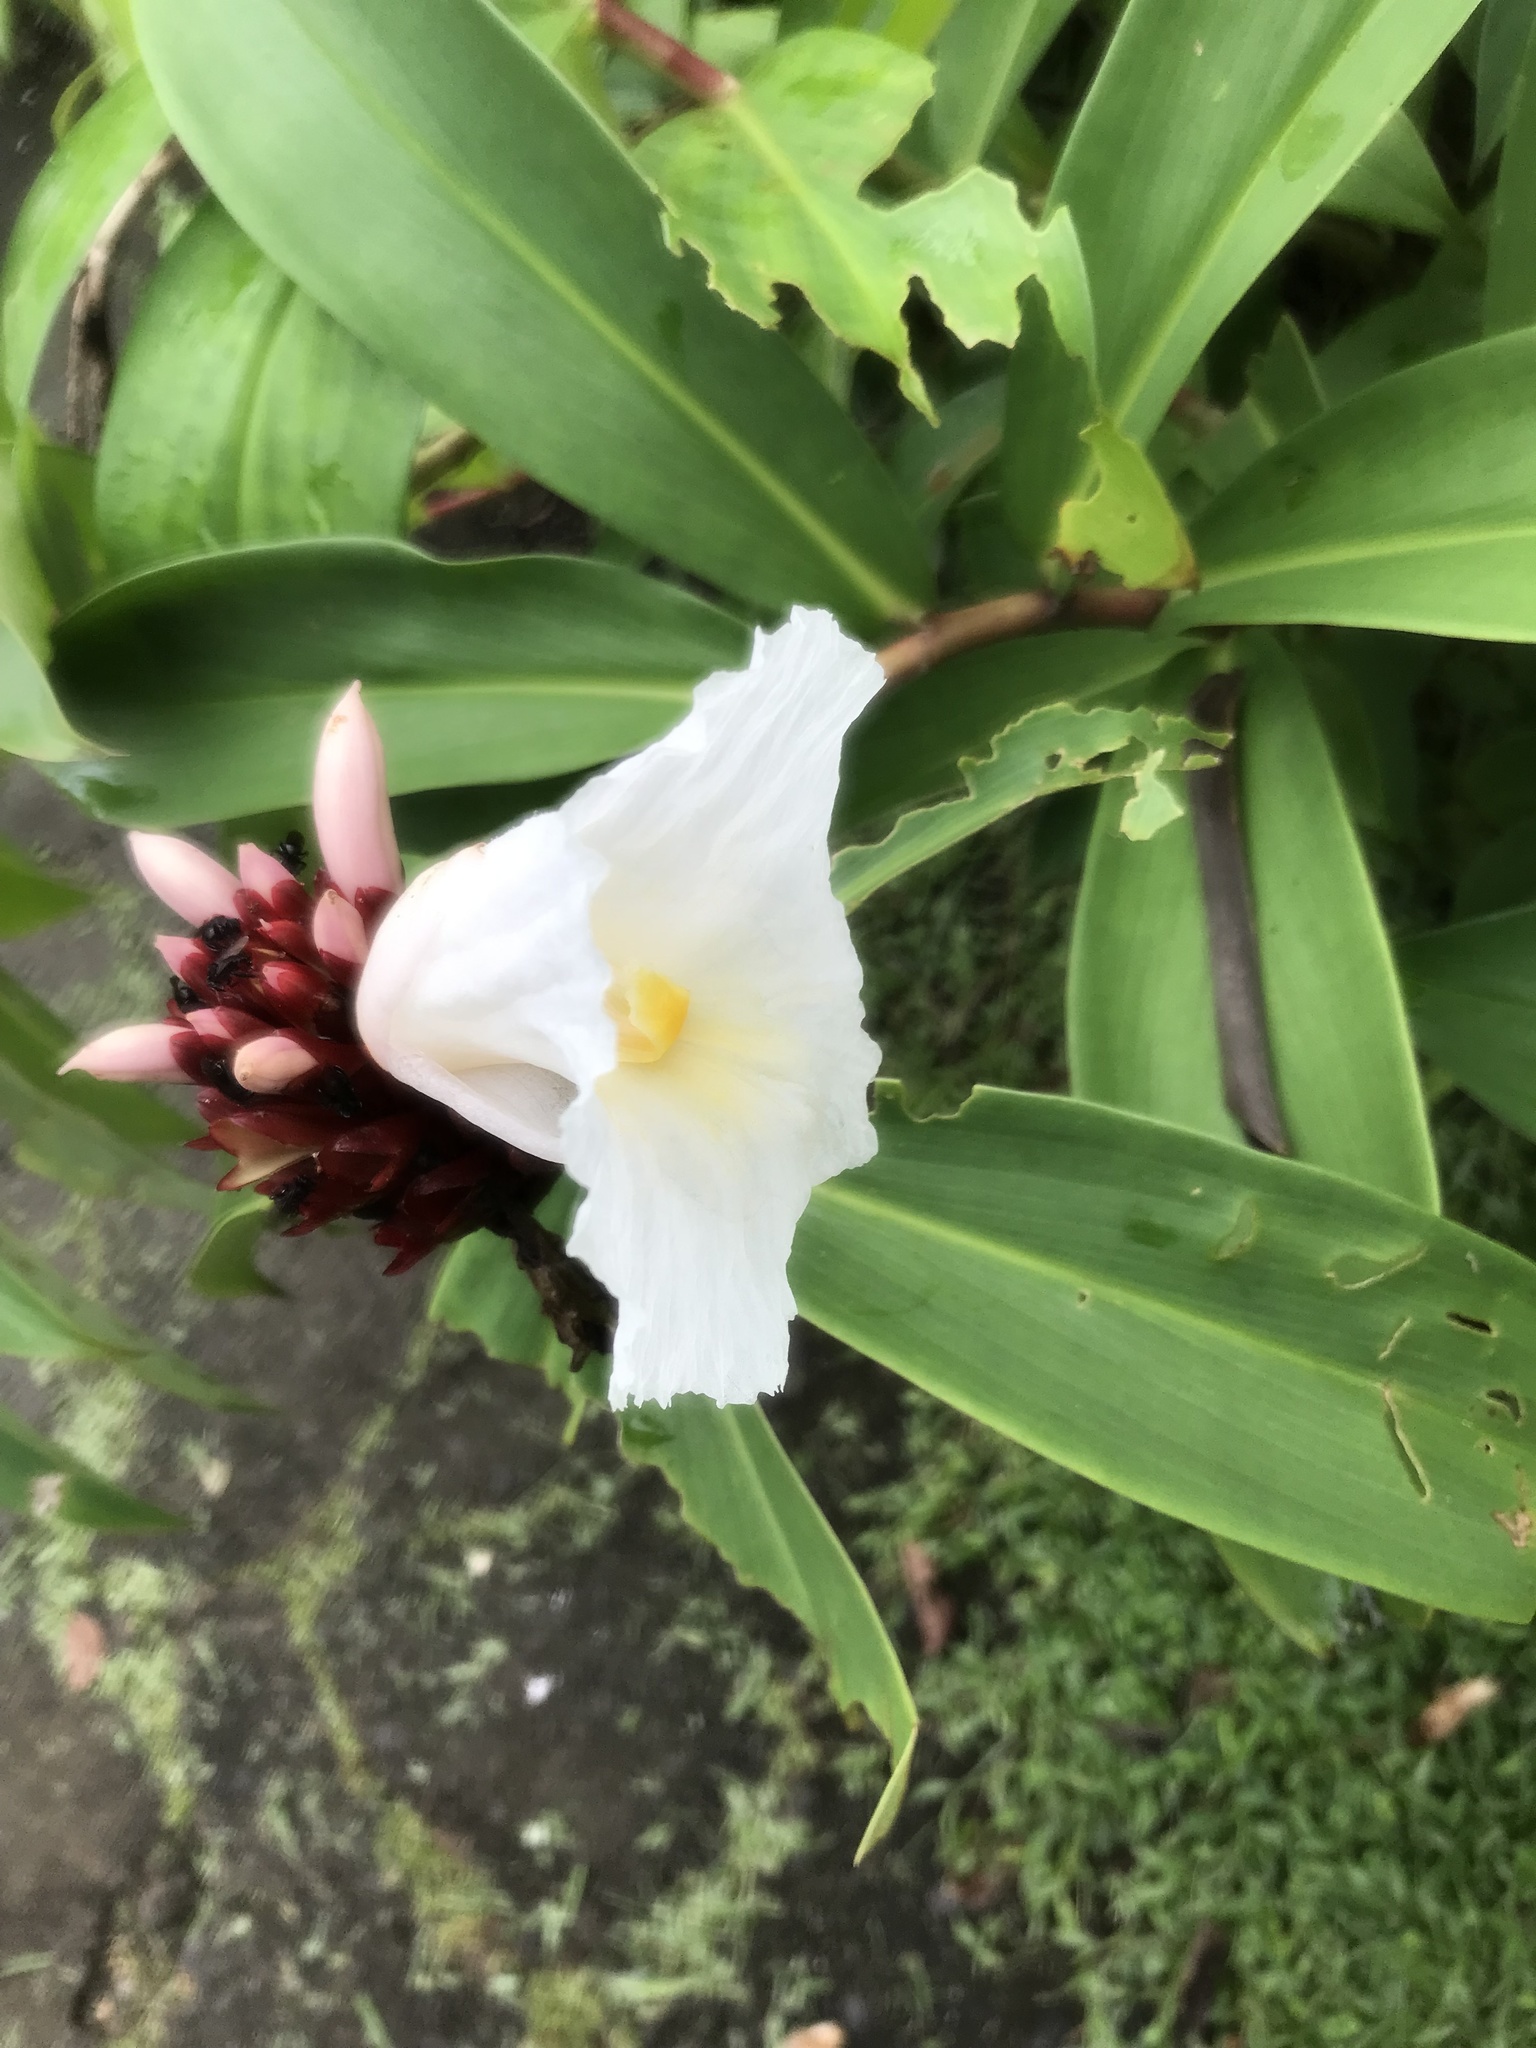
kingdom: Plantae
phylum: Tracheophyta
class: Liliopsida
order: Zingiberales
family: Costaceae
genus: Hellenia
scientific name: Hellenia speciosa
